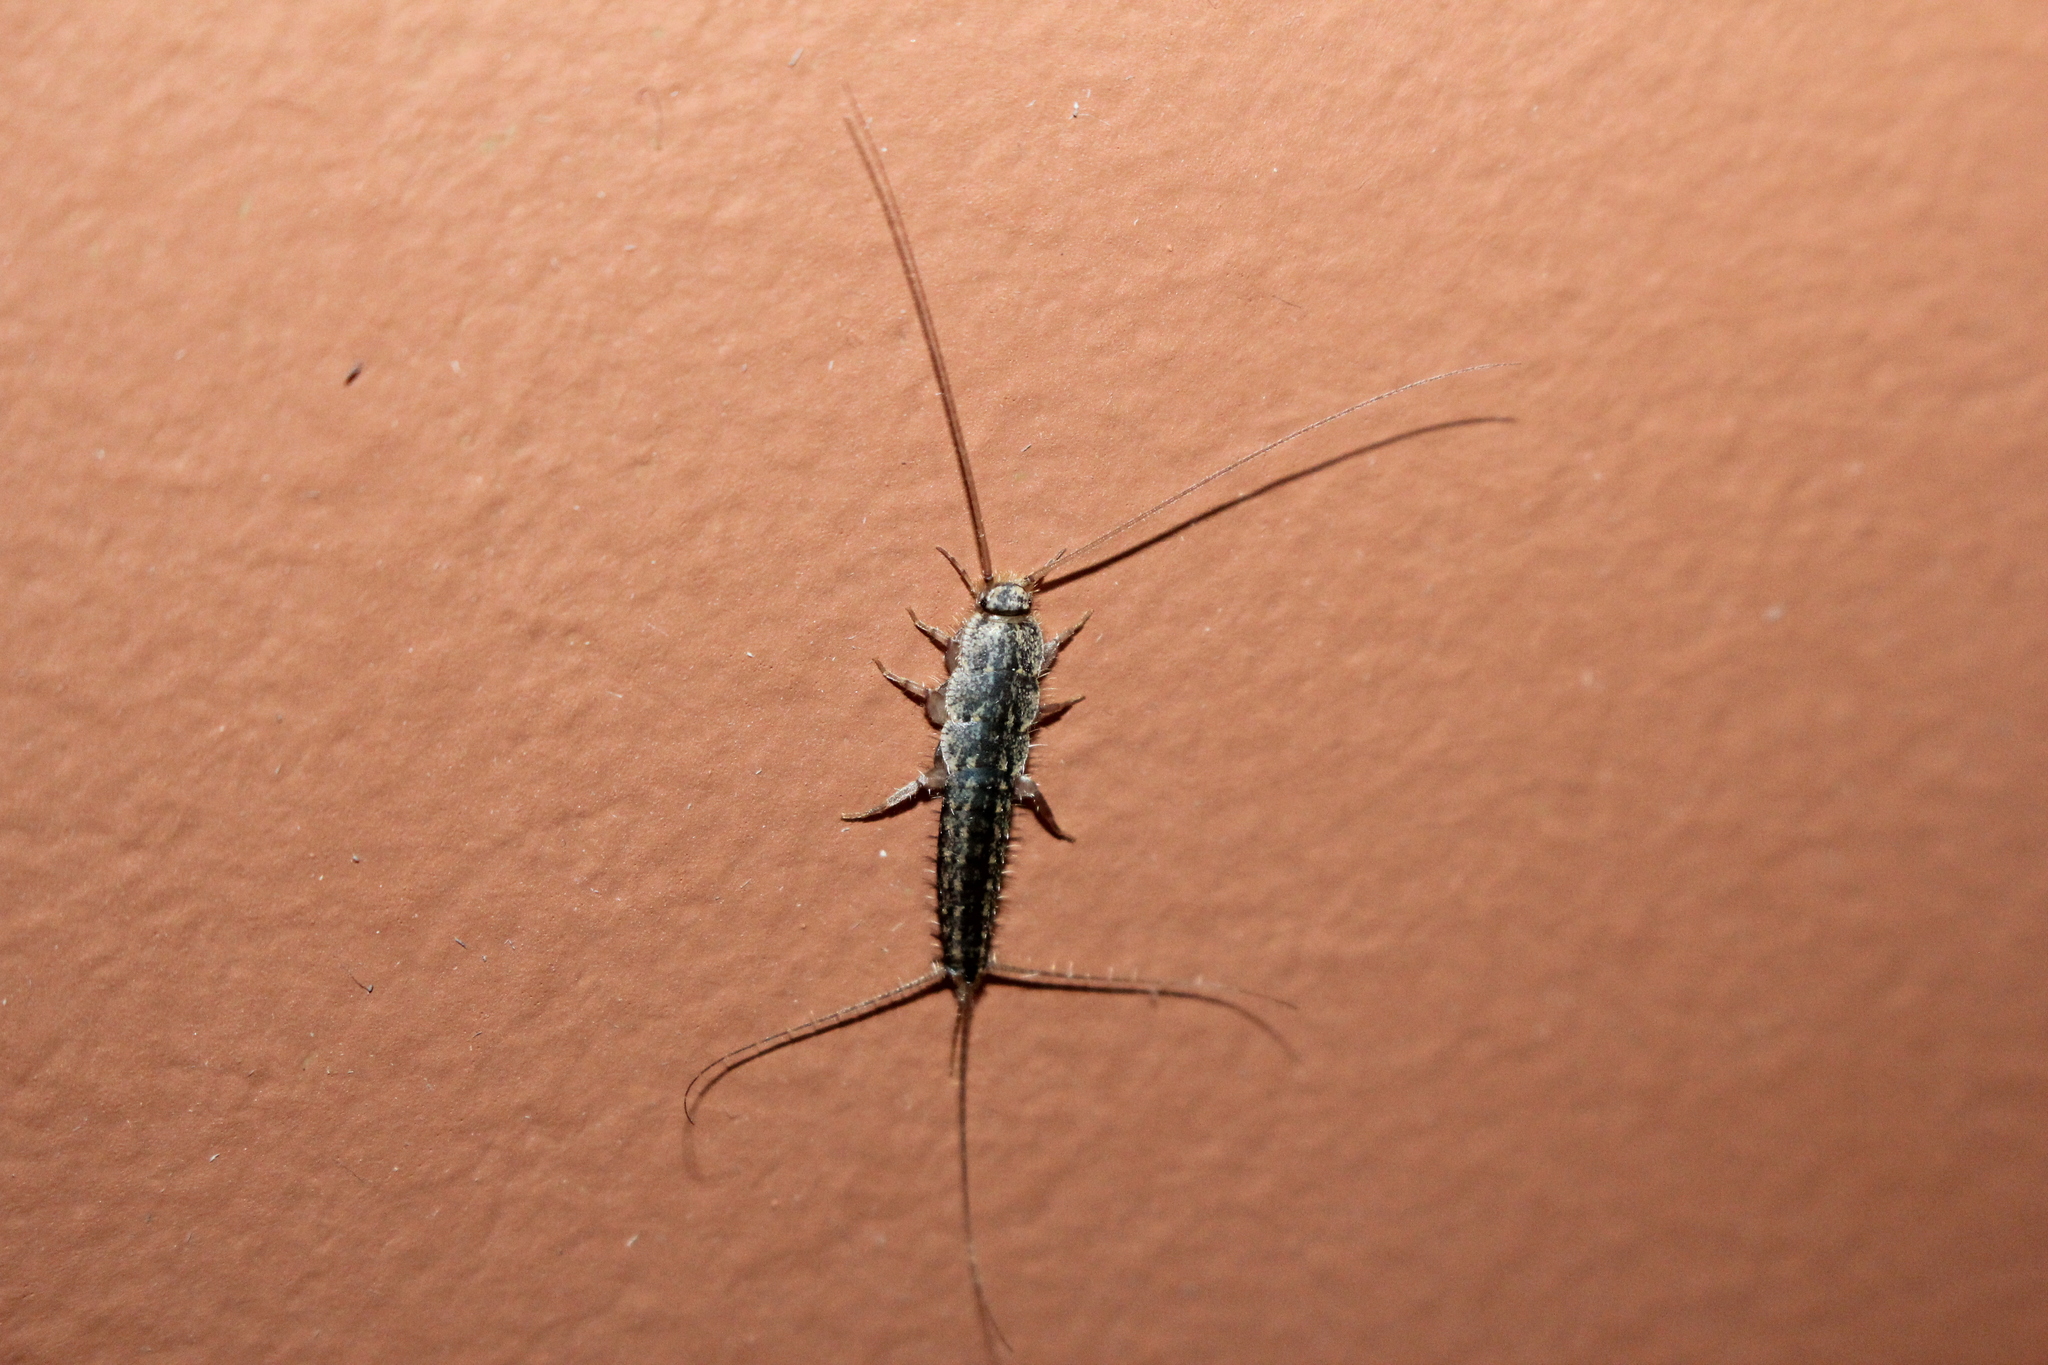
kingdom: Animalia
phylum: Arthropoda
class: Insecta
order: Zygentoma
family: Lepismatidae
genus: Ctenolepisma
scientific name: Ctenolepisma lineata
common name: Four-lined silverfish
